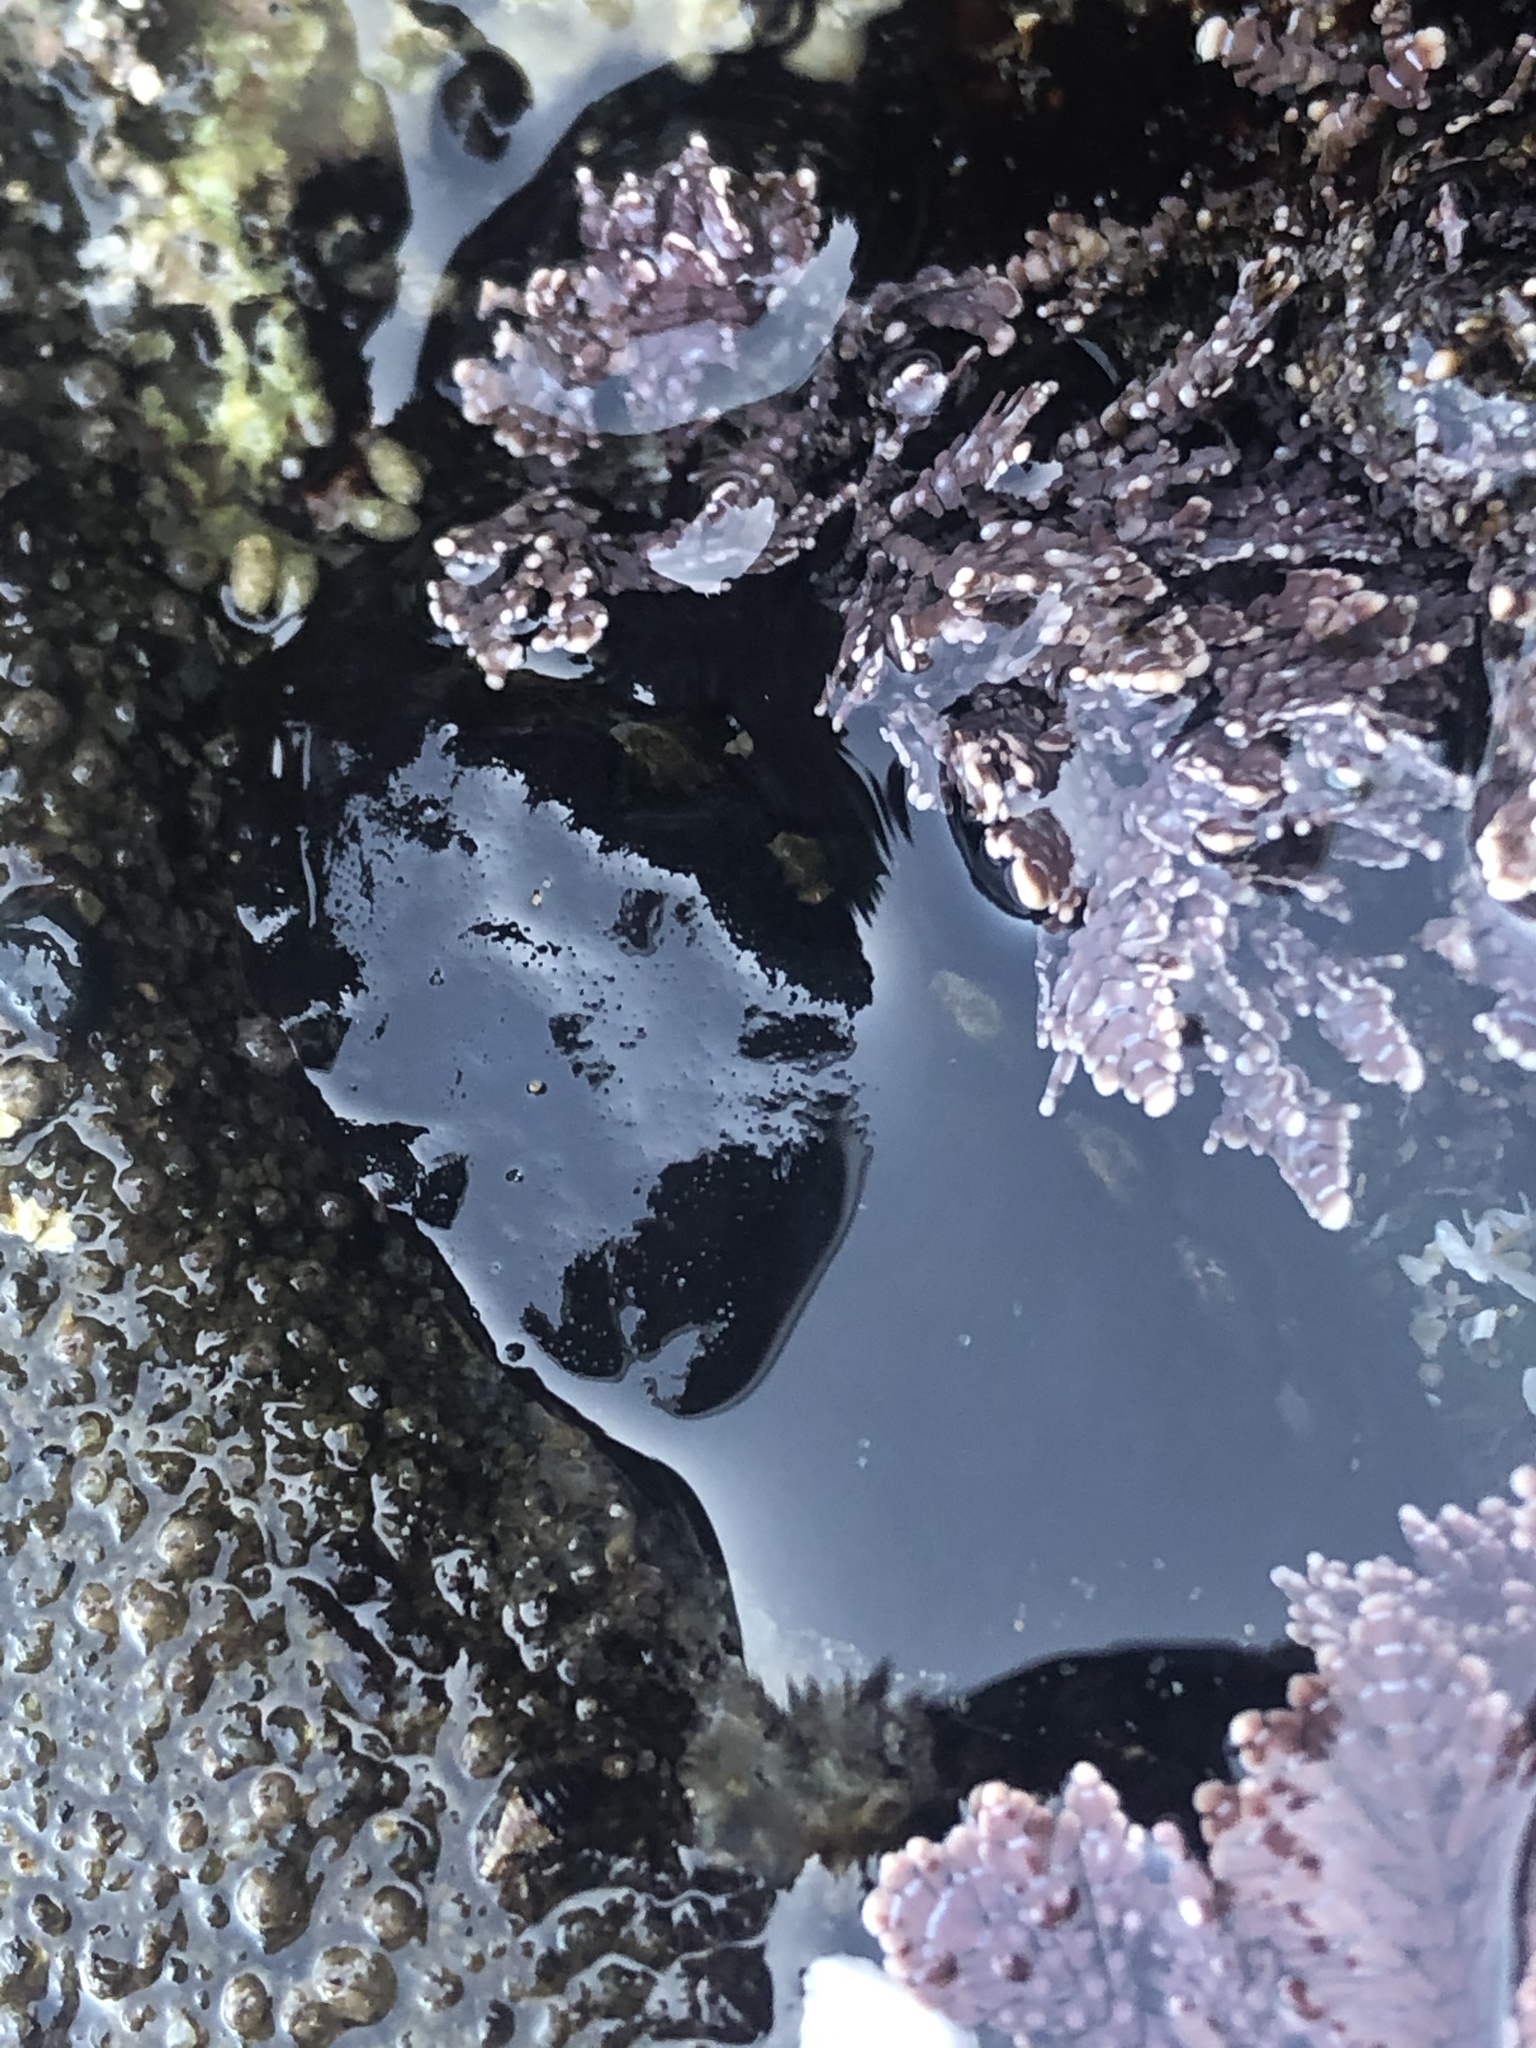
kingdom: Animalia
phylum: Mollusca
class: Polyplacophora
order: Chitonida
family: Mopaliidae
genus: Katharina
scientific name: Katharina tunicata
